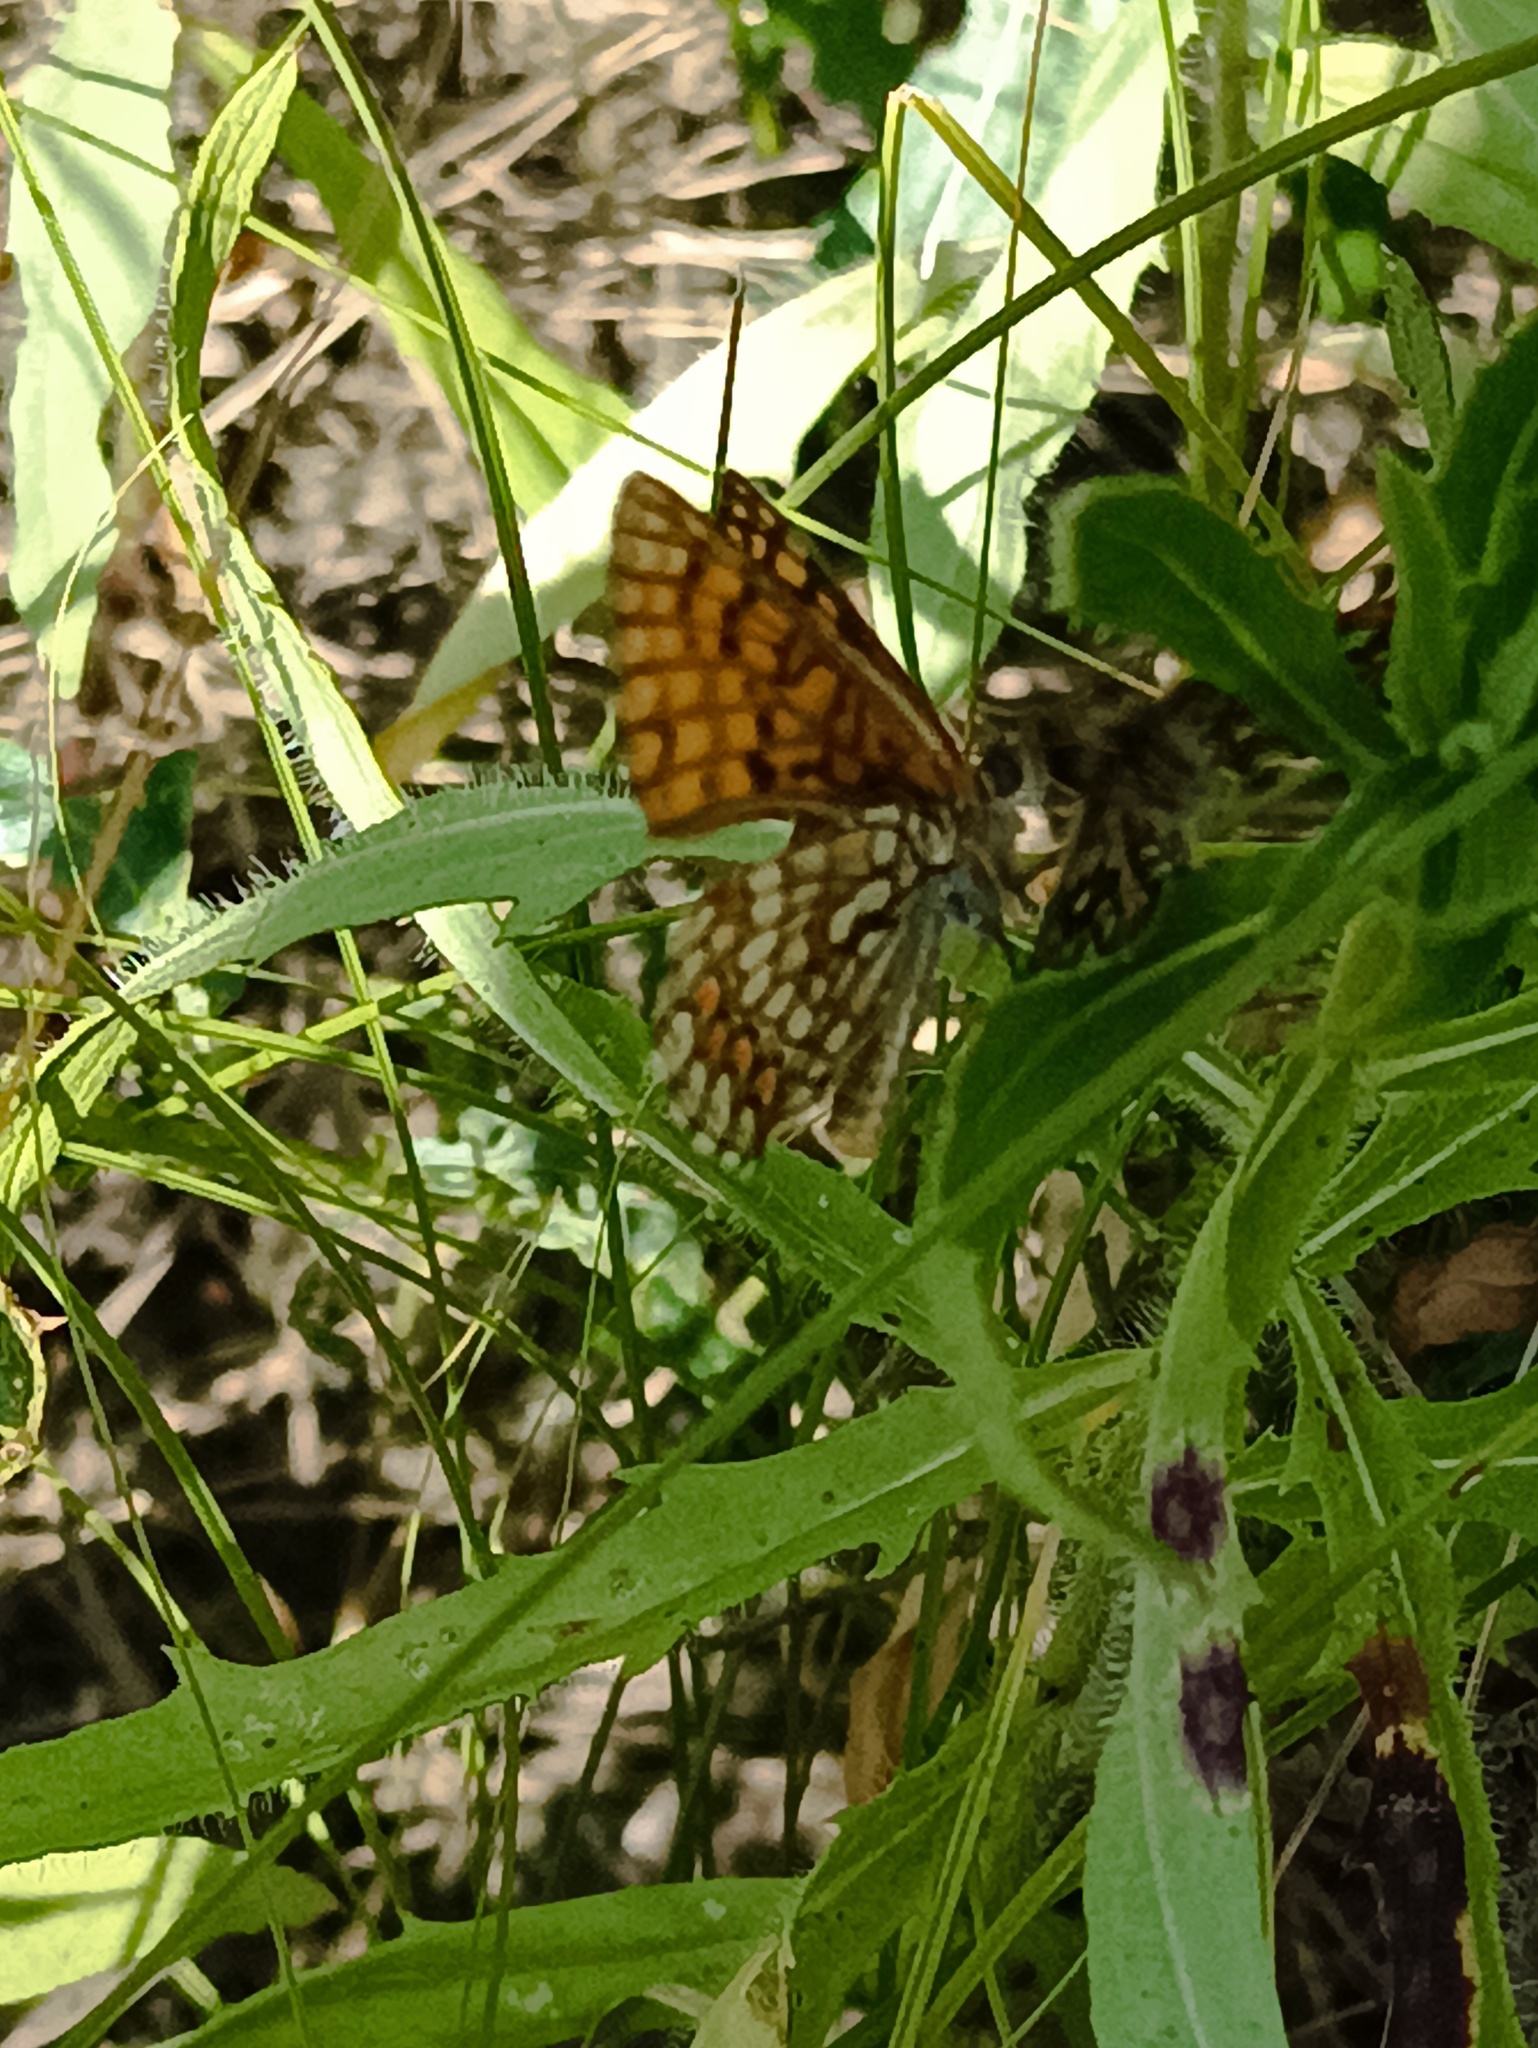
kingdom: Animalia
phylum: Arthropoda
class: Insecta
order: Lepidoptera
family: Nymphalidae
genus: Melitaea
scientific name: Melitaea athalia
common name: Heath fritillary
